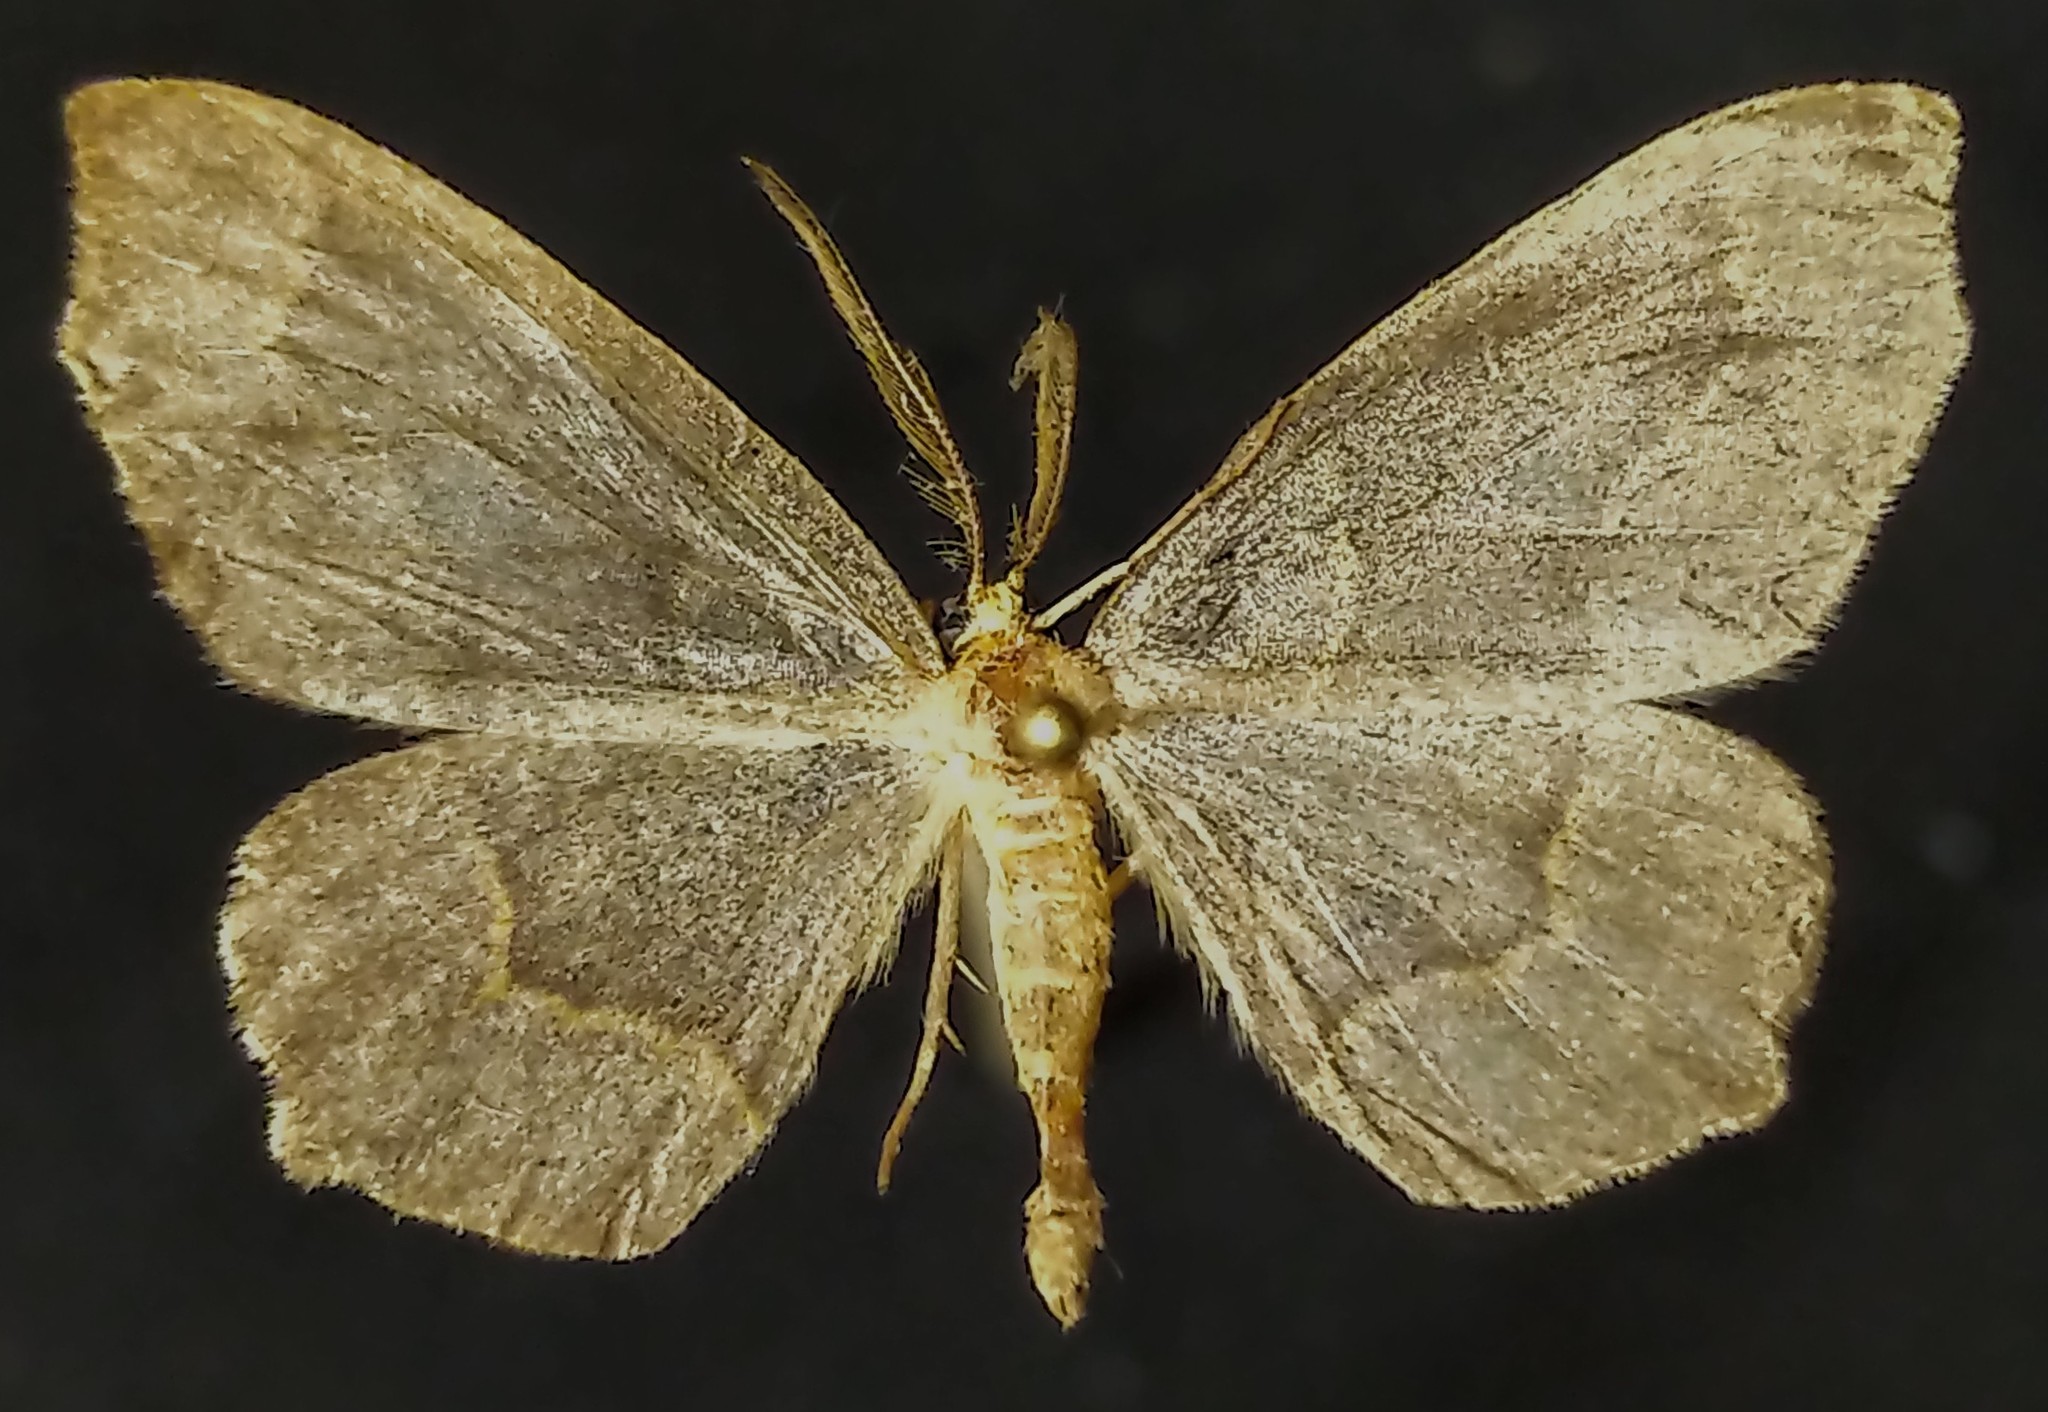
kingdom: Animalia
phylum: Arthropoda
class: Insecta
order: Lepidoptera
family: Geometridae
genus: Lambdina
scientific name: Lambdina fiscellaria
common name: Hemlock looper
